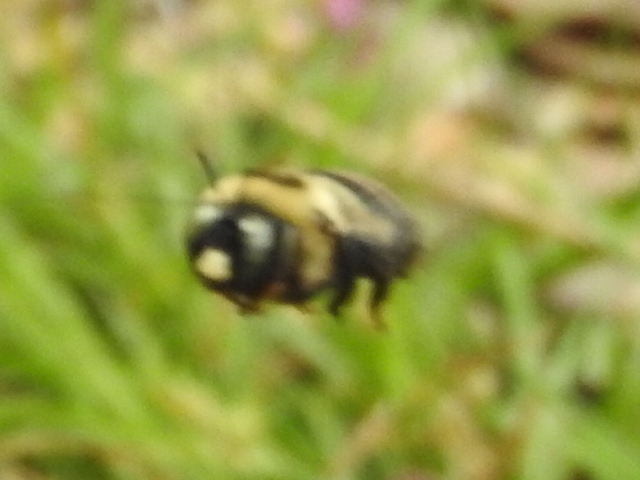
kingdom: Animalia
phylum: Arthropoda
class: Insecta
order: Hymenoptera
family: Apidae
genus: Xylocopa
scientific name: Xylocopa virginica
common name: Carpenter bee
